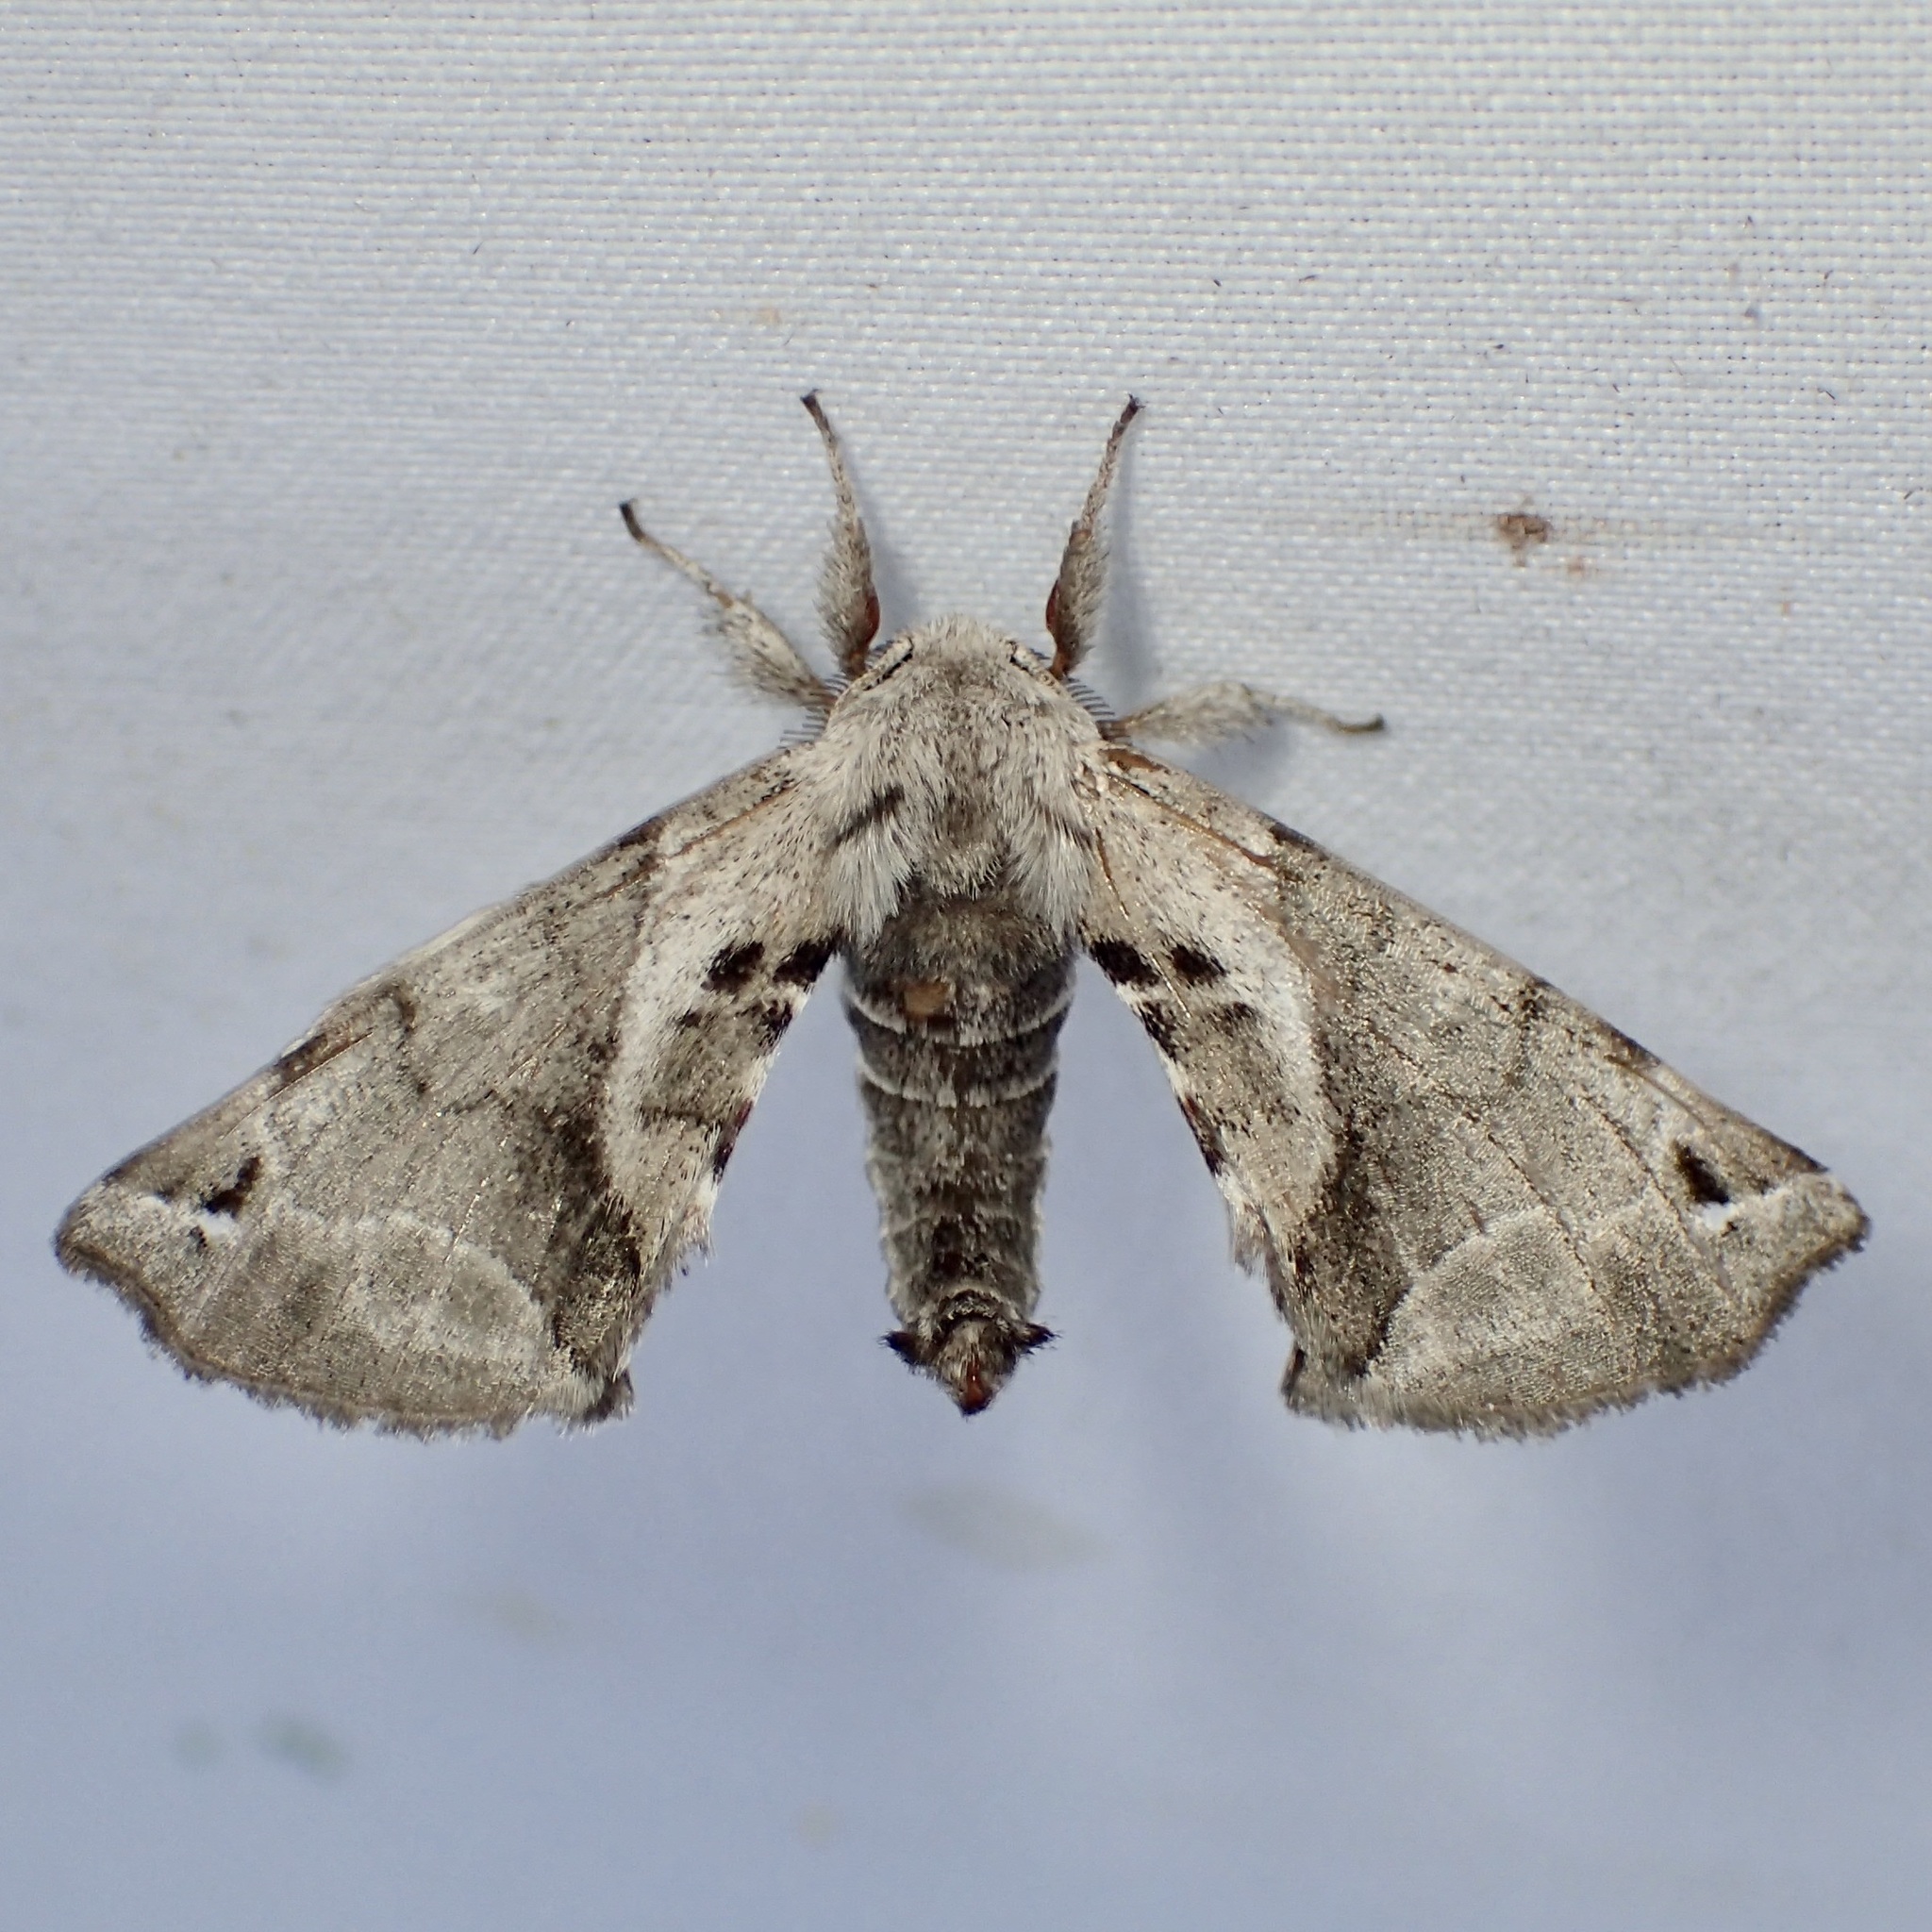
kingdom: Animalia
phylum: Arthropoda
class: Insecta
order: Lepidoptera
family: Apatelodidae
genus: Hygrochroa
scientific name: Hygrochroa Apatelodes pudefacta
